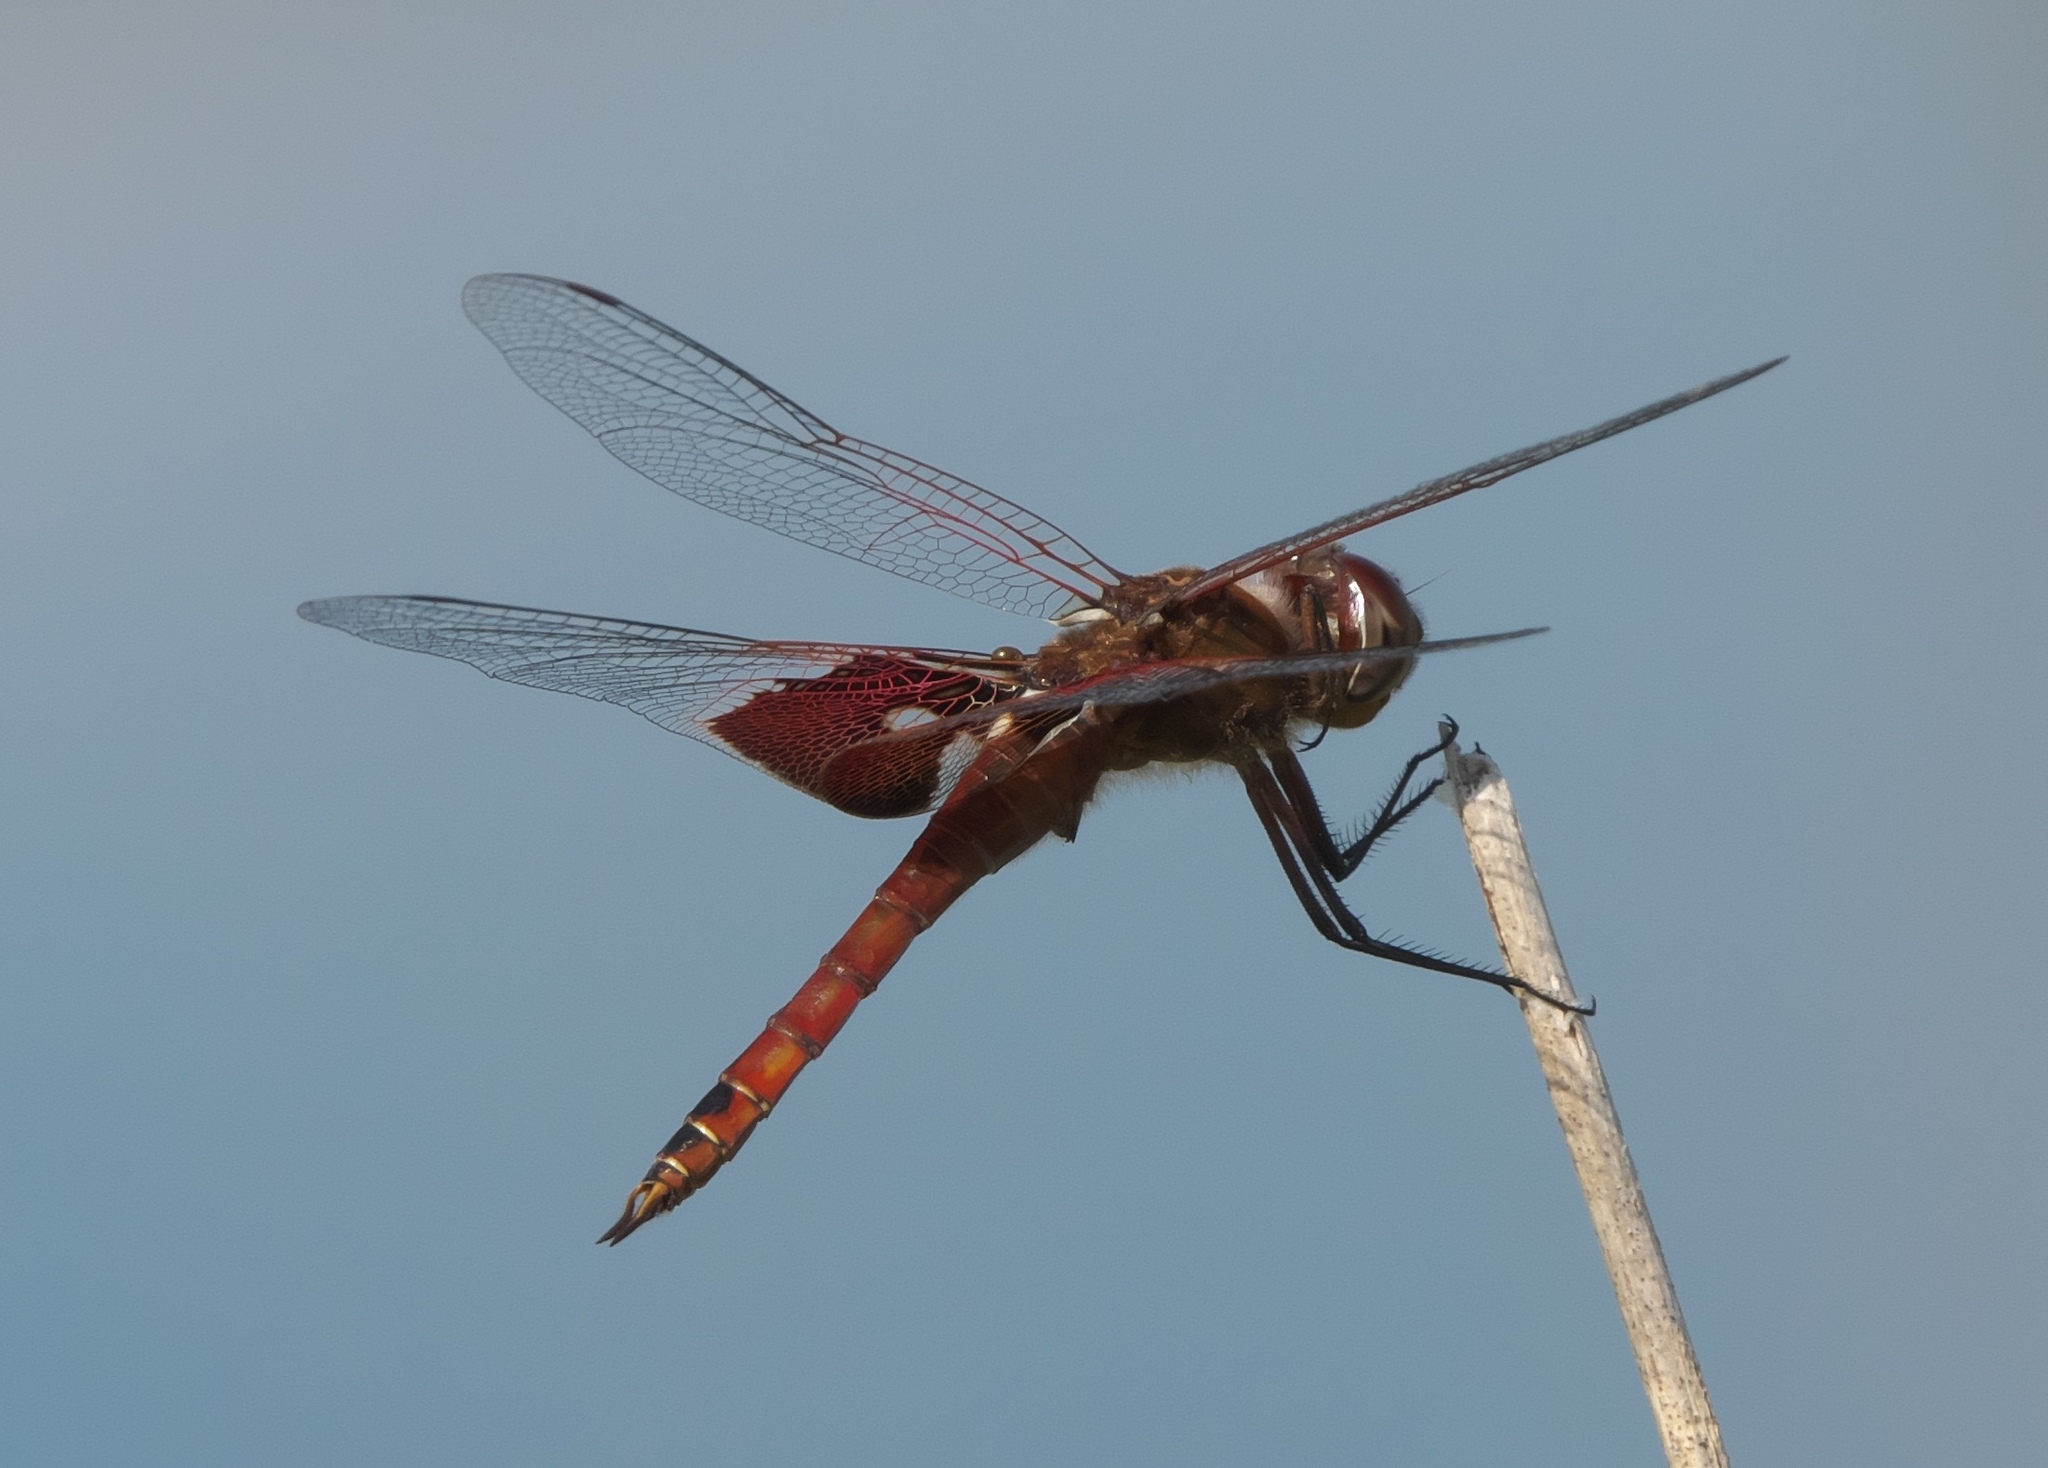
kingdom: Animalia
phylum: Arthropoda
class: Insecta
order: Odonata
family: Libellulidae
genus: Tramea
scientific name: Tramea onusta
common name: Red saddlebags
